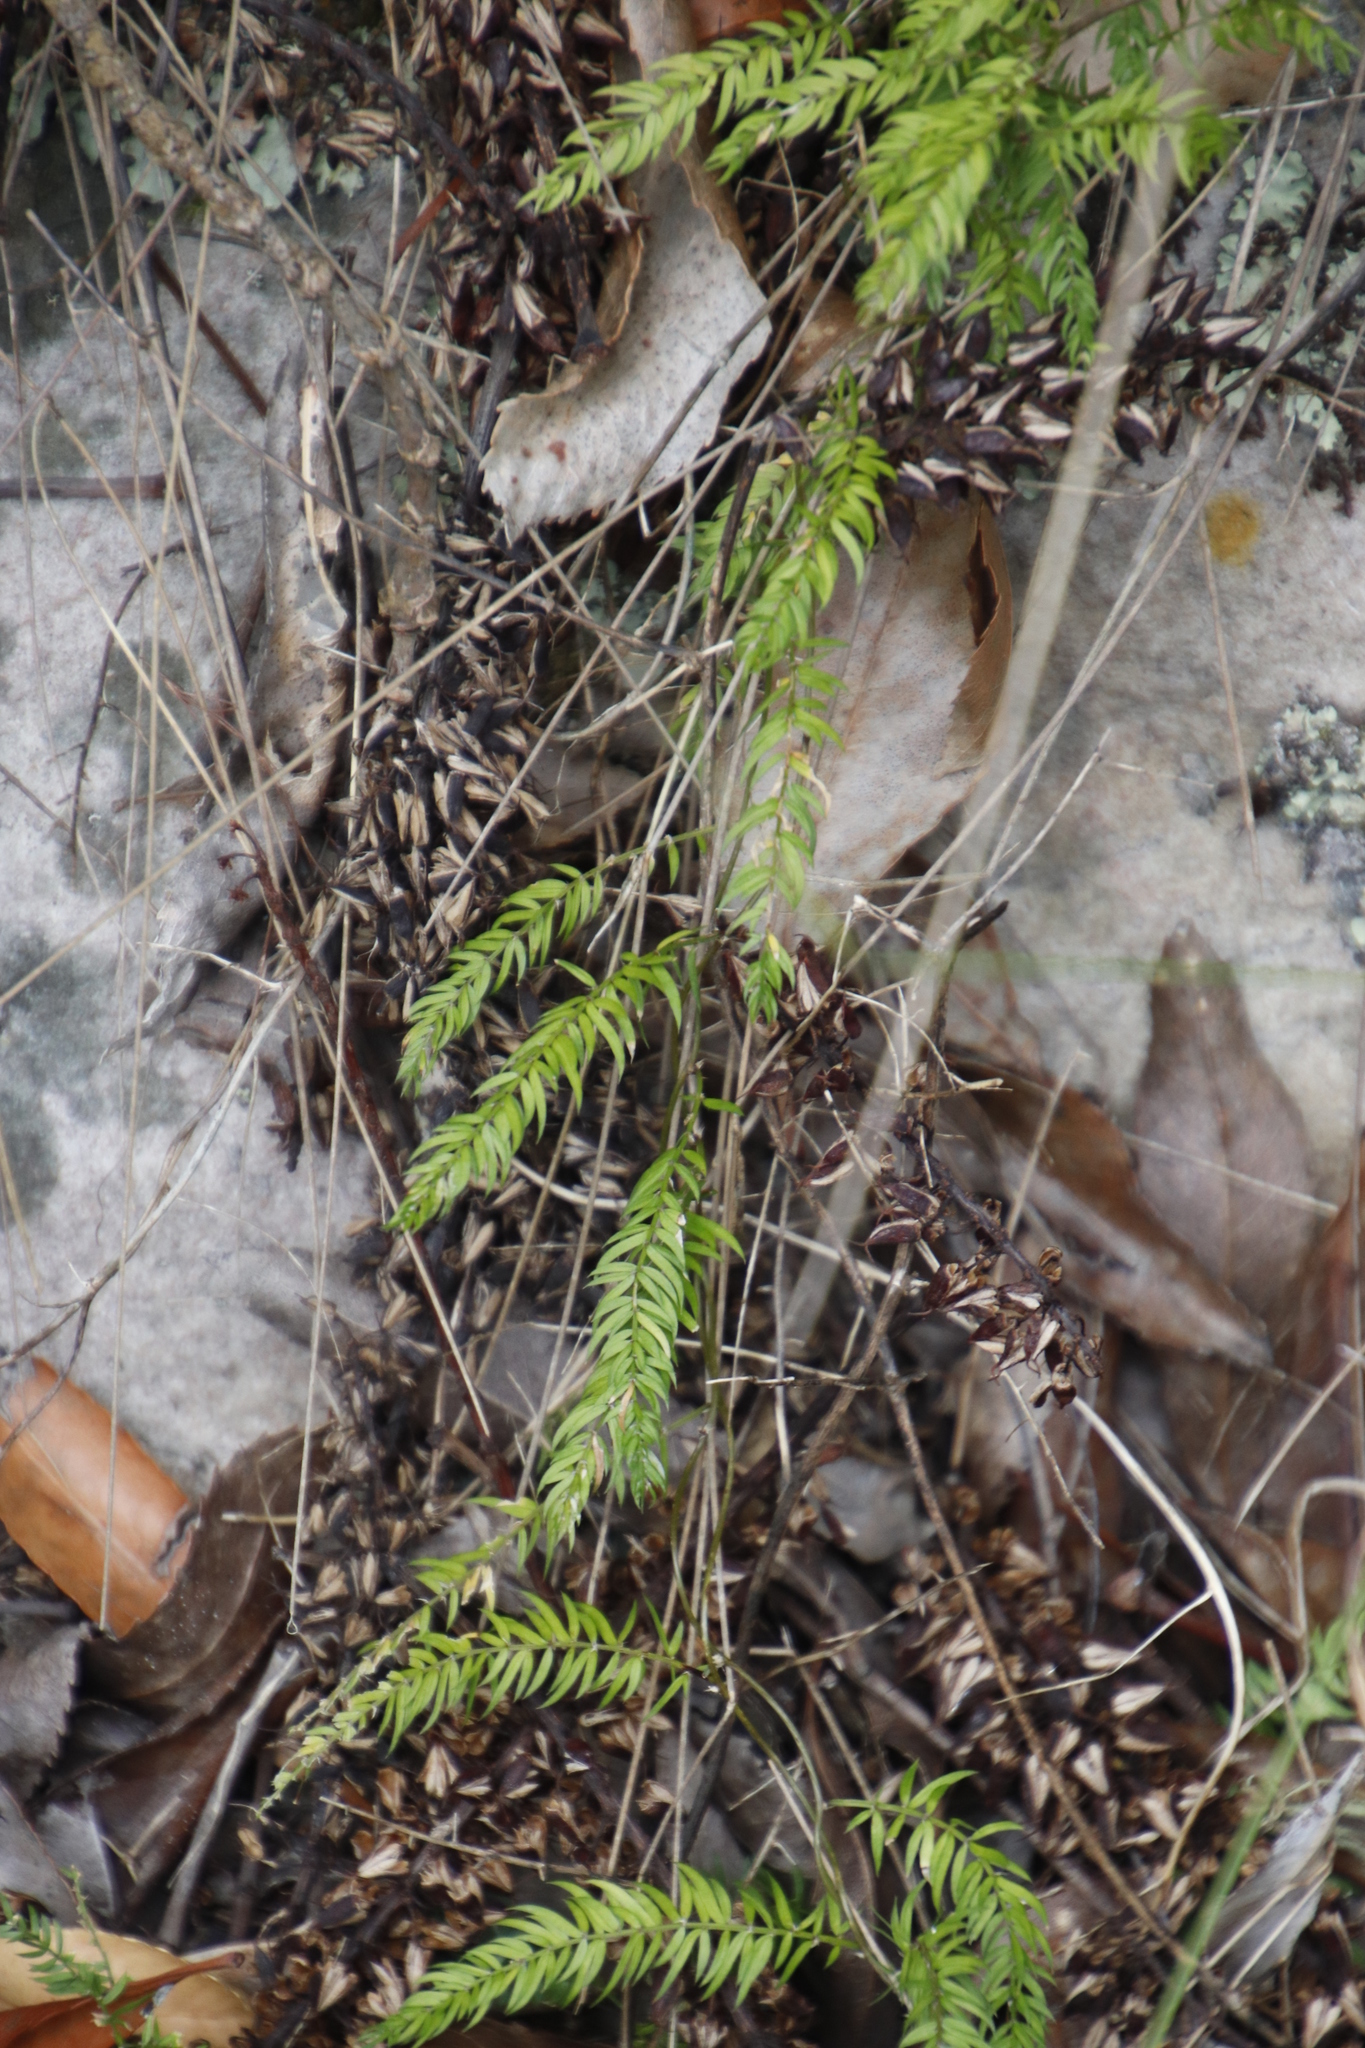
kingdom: Plantae
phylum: Tracheophyta
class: Liliopsida
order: Asparagales
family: Asparagaceae
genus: Asparagus
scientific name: Asparagus scandens
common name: Asparagus-fern
